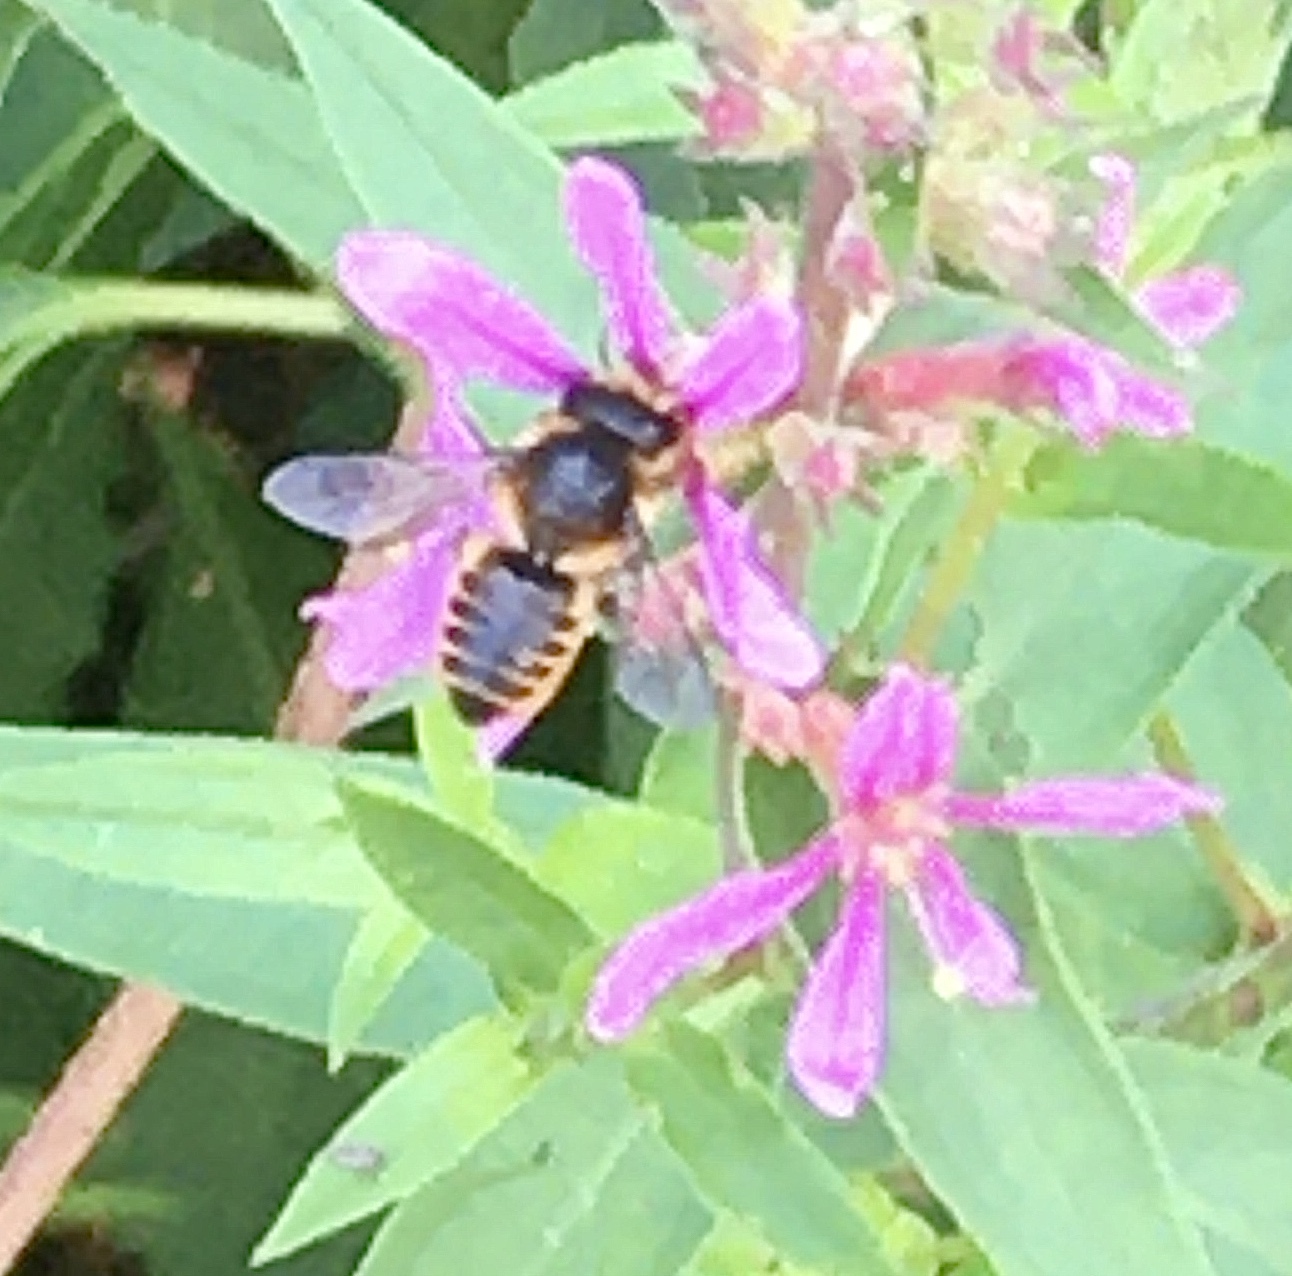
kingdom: Animalia
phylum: Arthropoda
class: Insecta
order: Hymenoptera
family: Megachilidae
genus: Megachile
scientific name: Megachile
